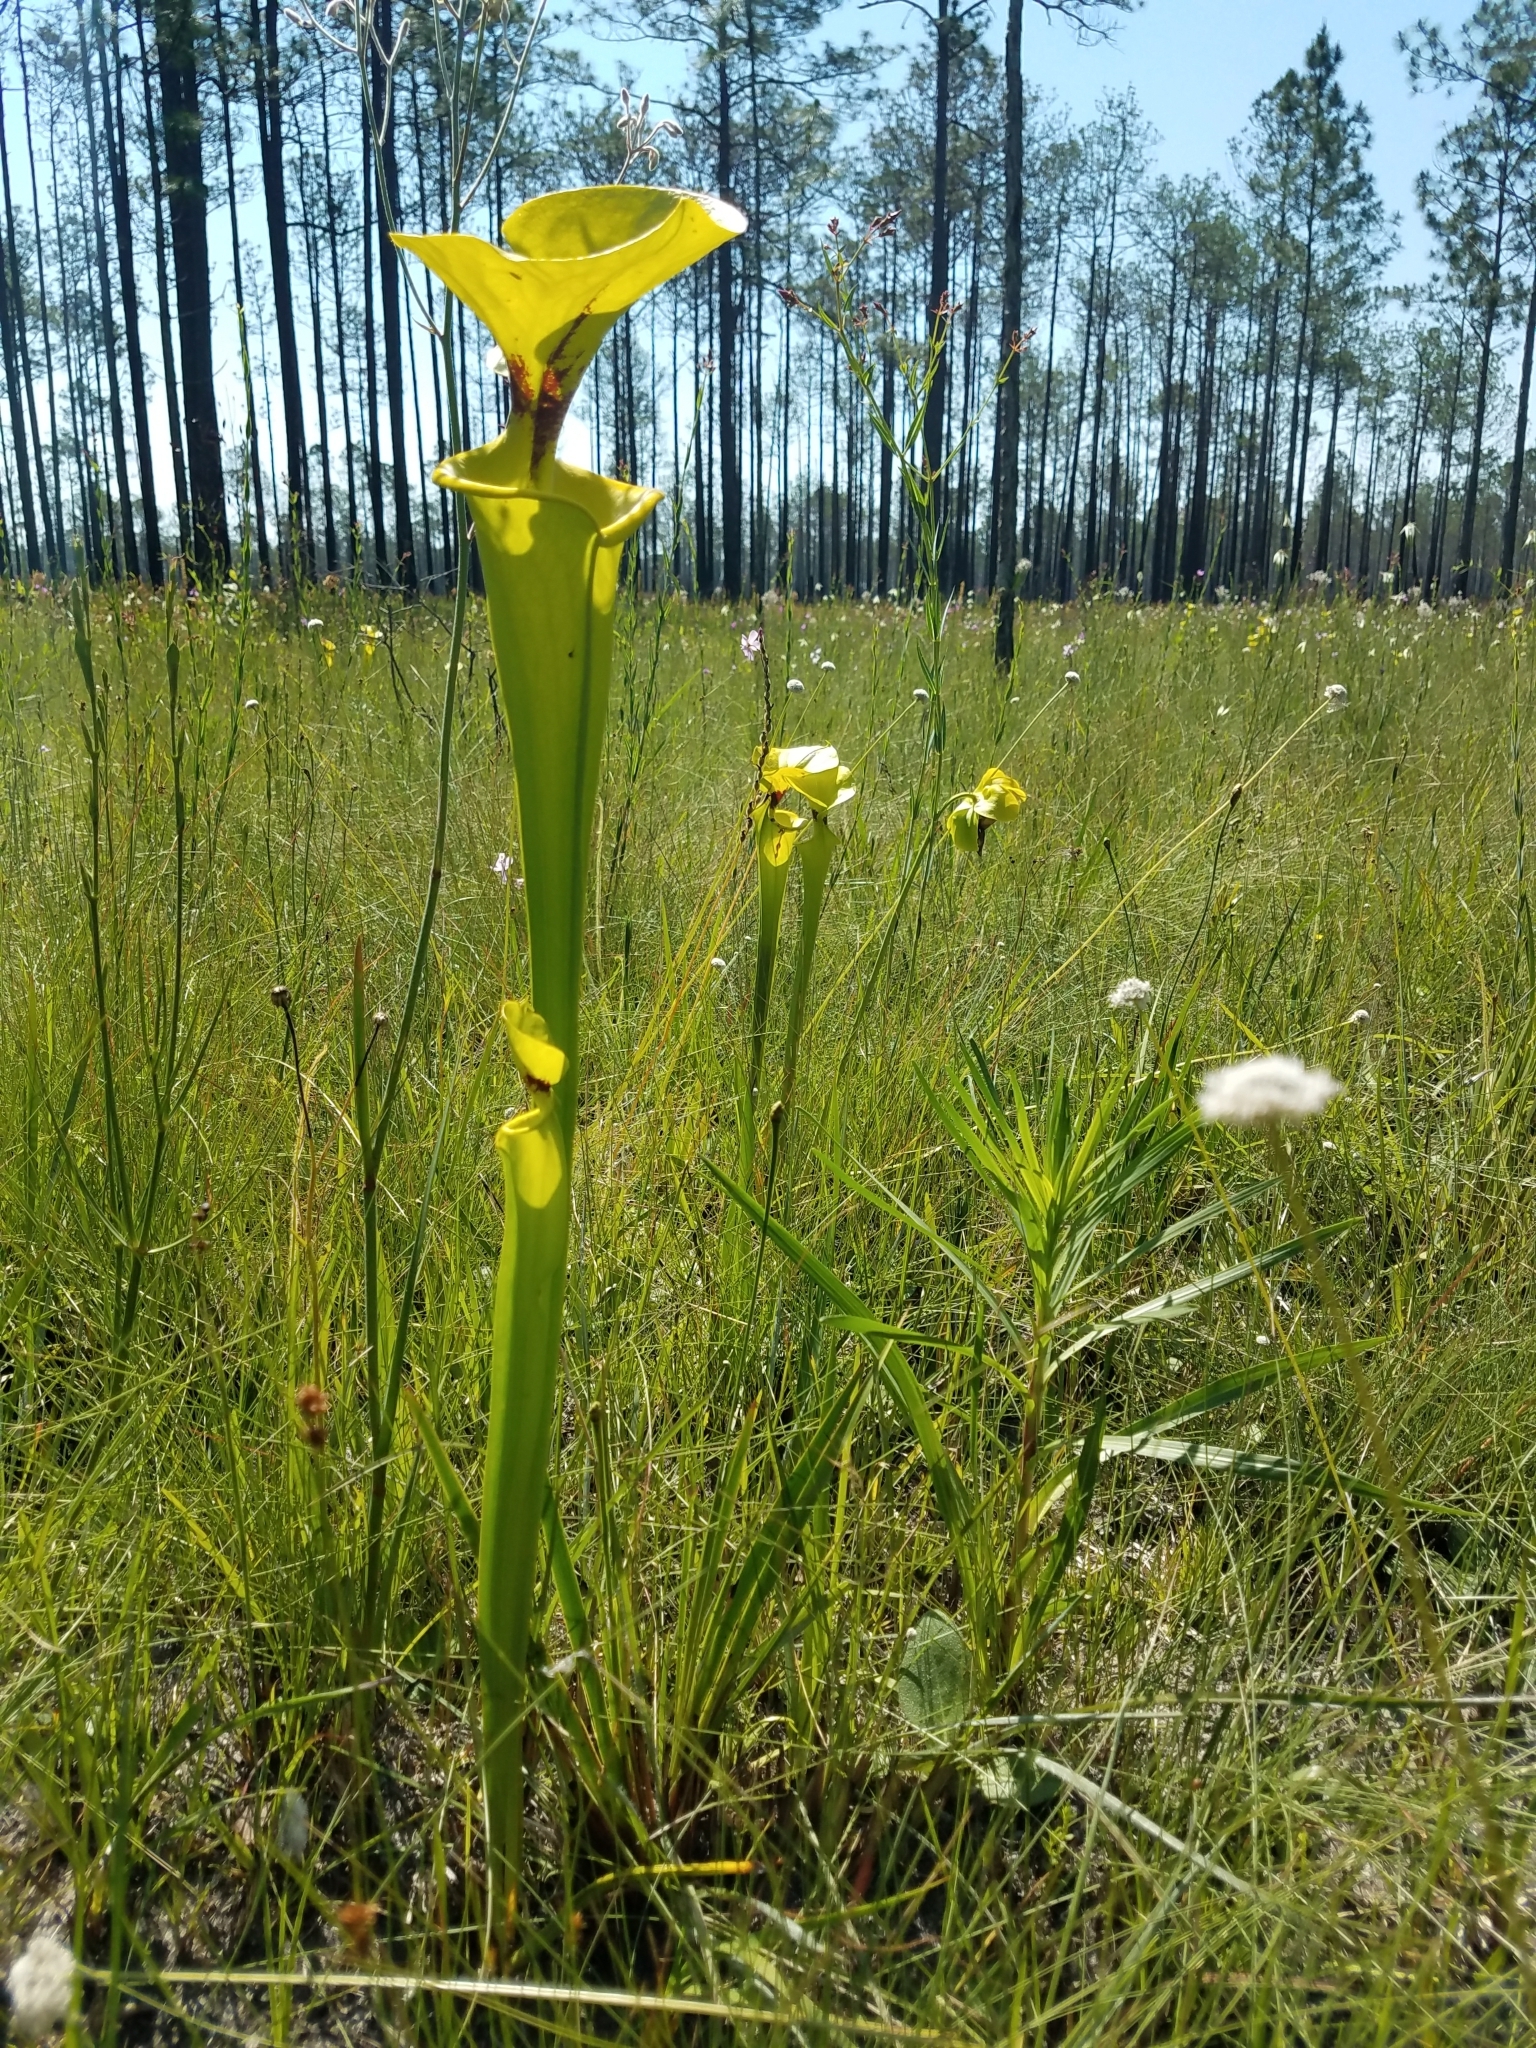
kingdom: Plantae
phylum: Tracheophyta
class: Magnoliopsida
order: Ericales
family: Sarraceniaceae
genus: Sarracenia
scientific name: Sarracenia flava
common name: Trumpets
